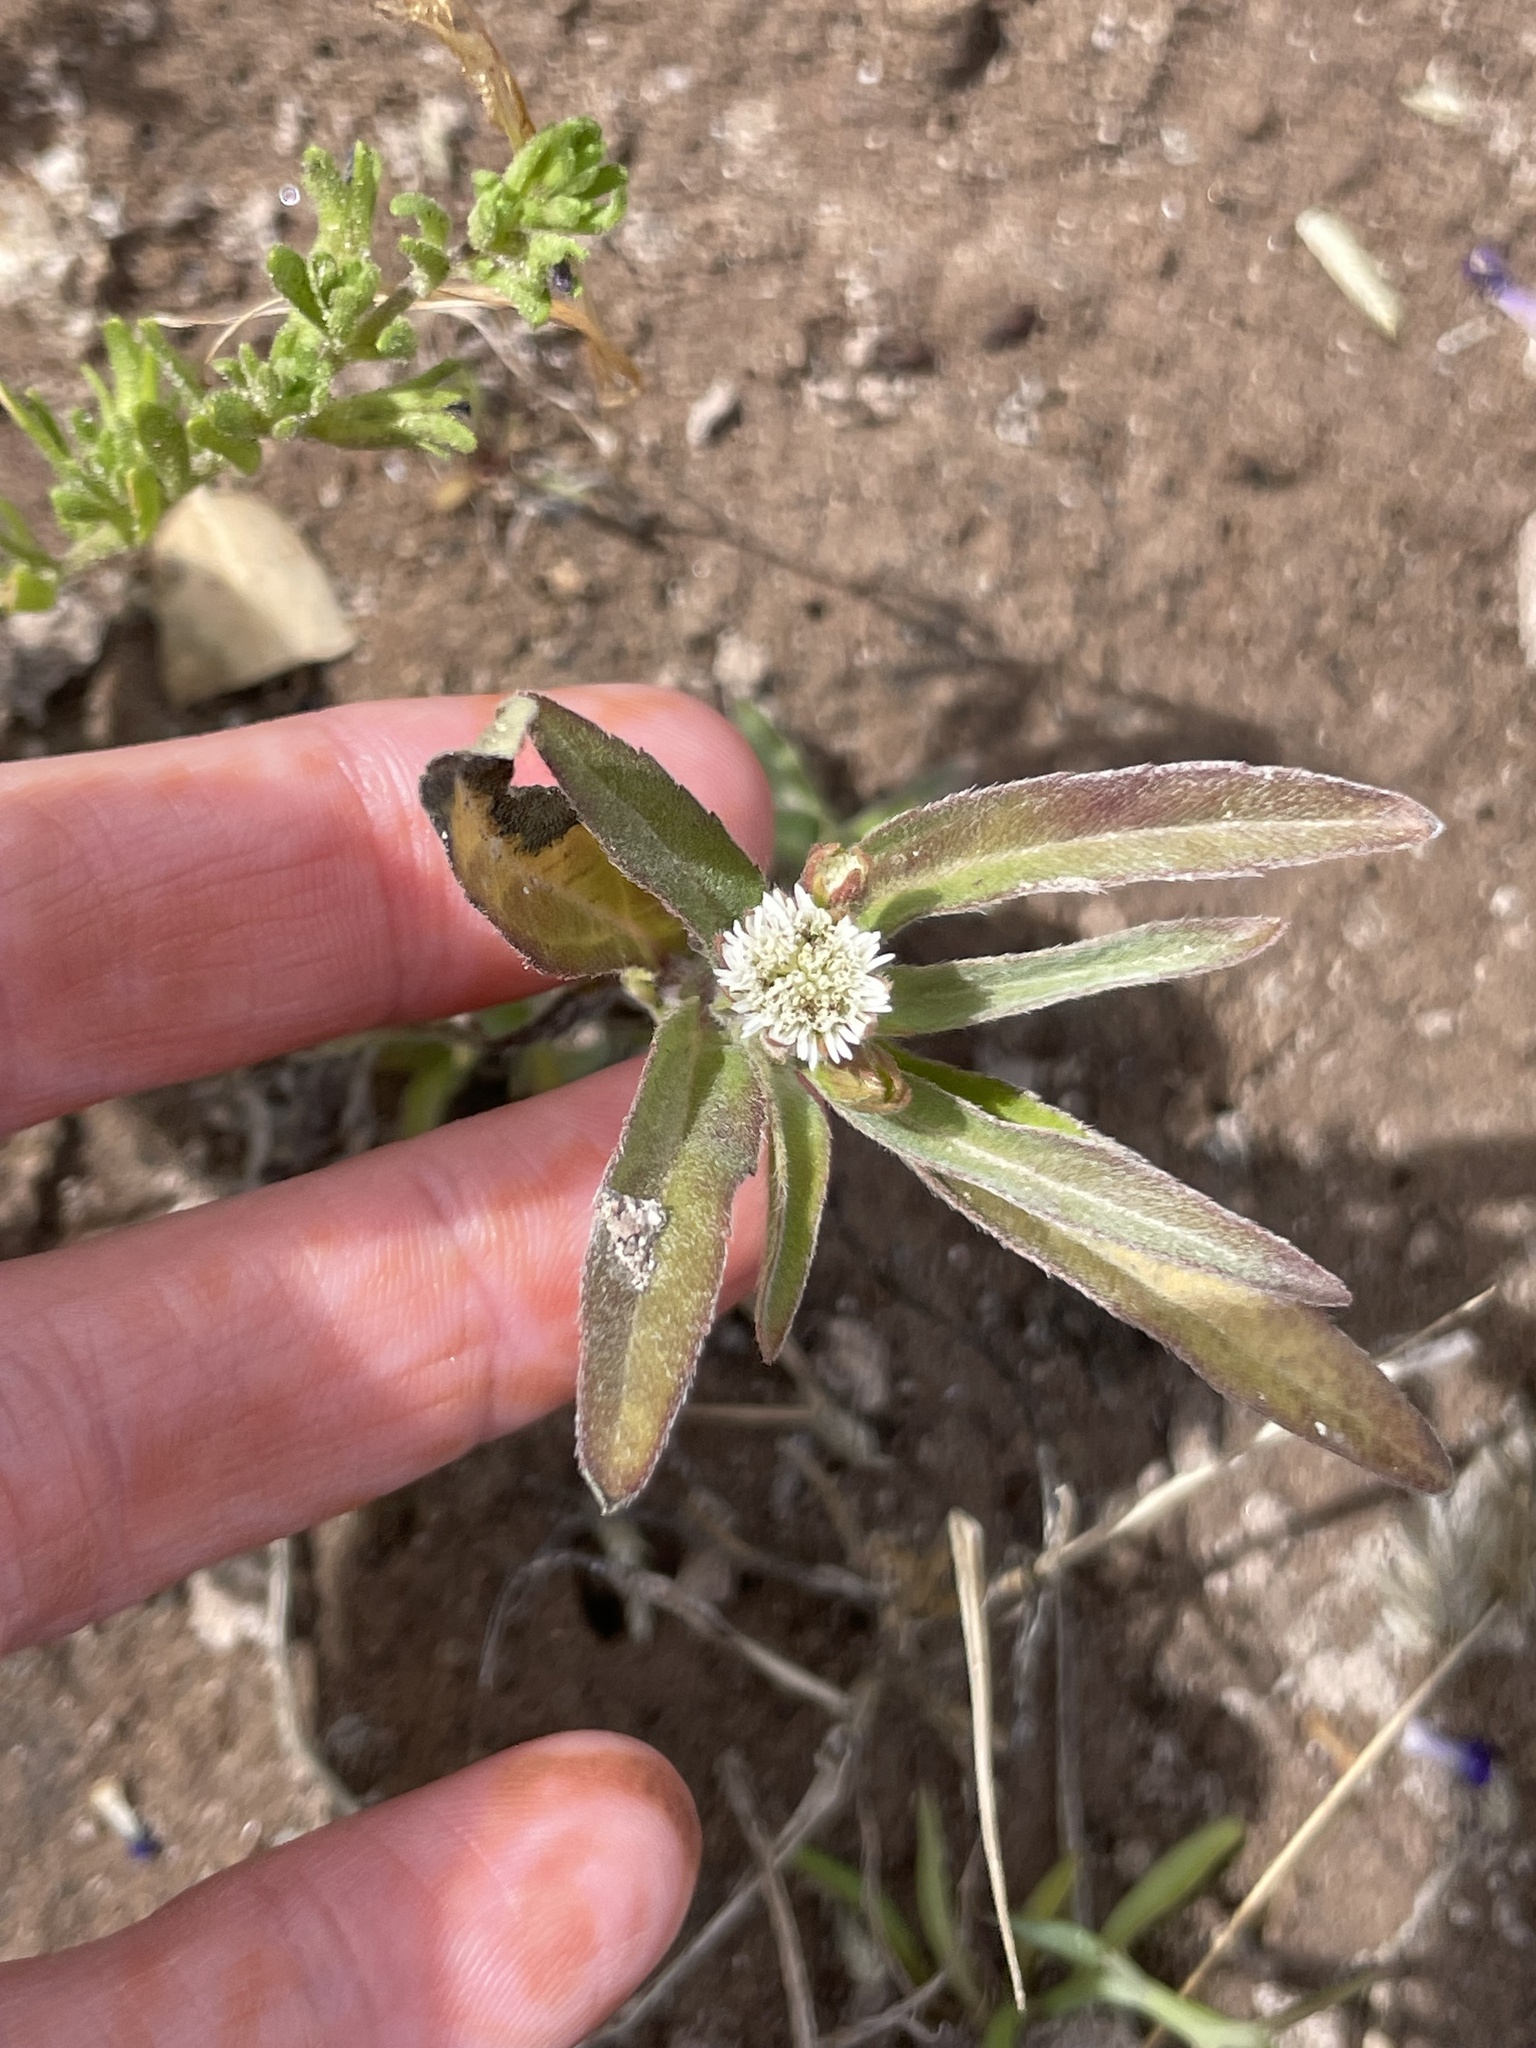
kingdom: Plantae
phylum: Tracheophyta
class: Magnoliopsida
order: Asterales
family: Asteraceae
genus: Eclipta
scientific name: Eclipta prostrata
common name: False daisy
